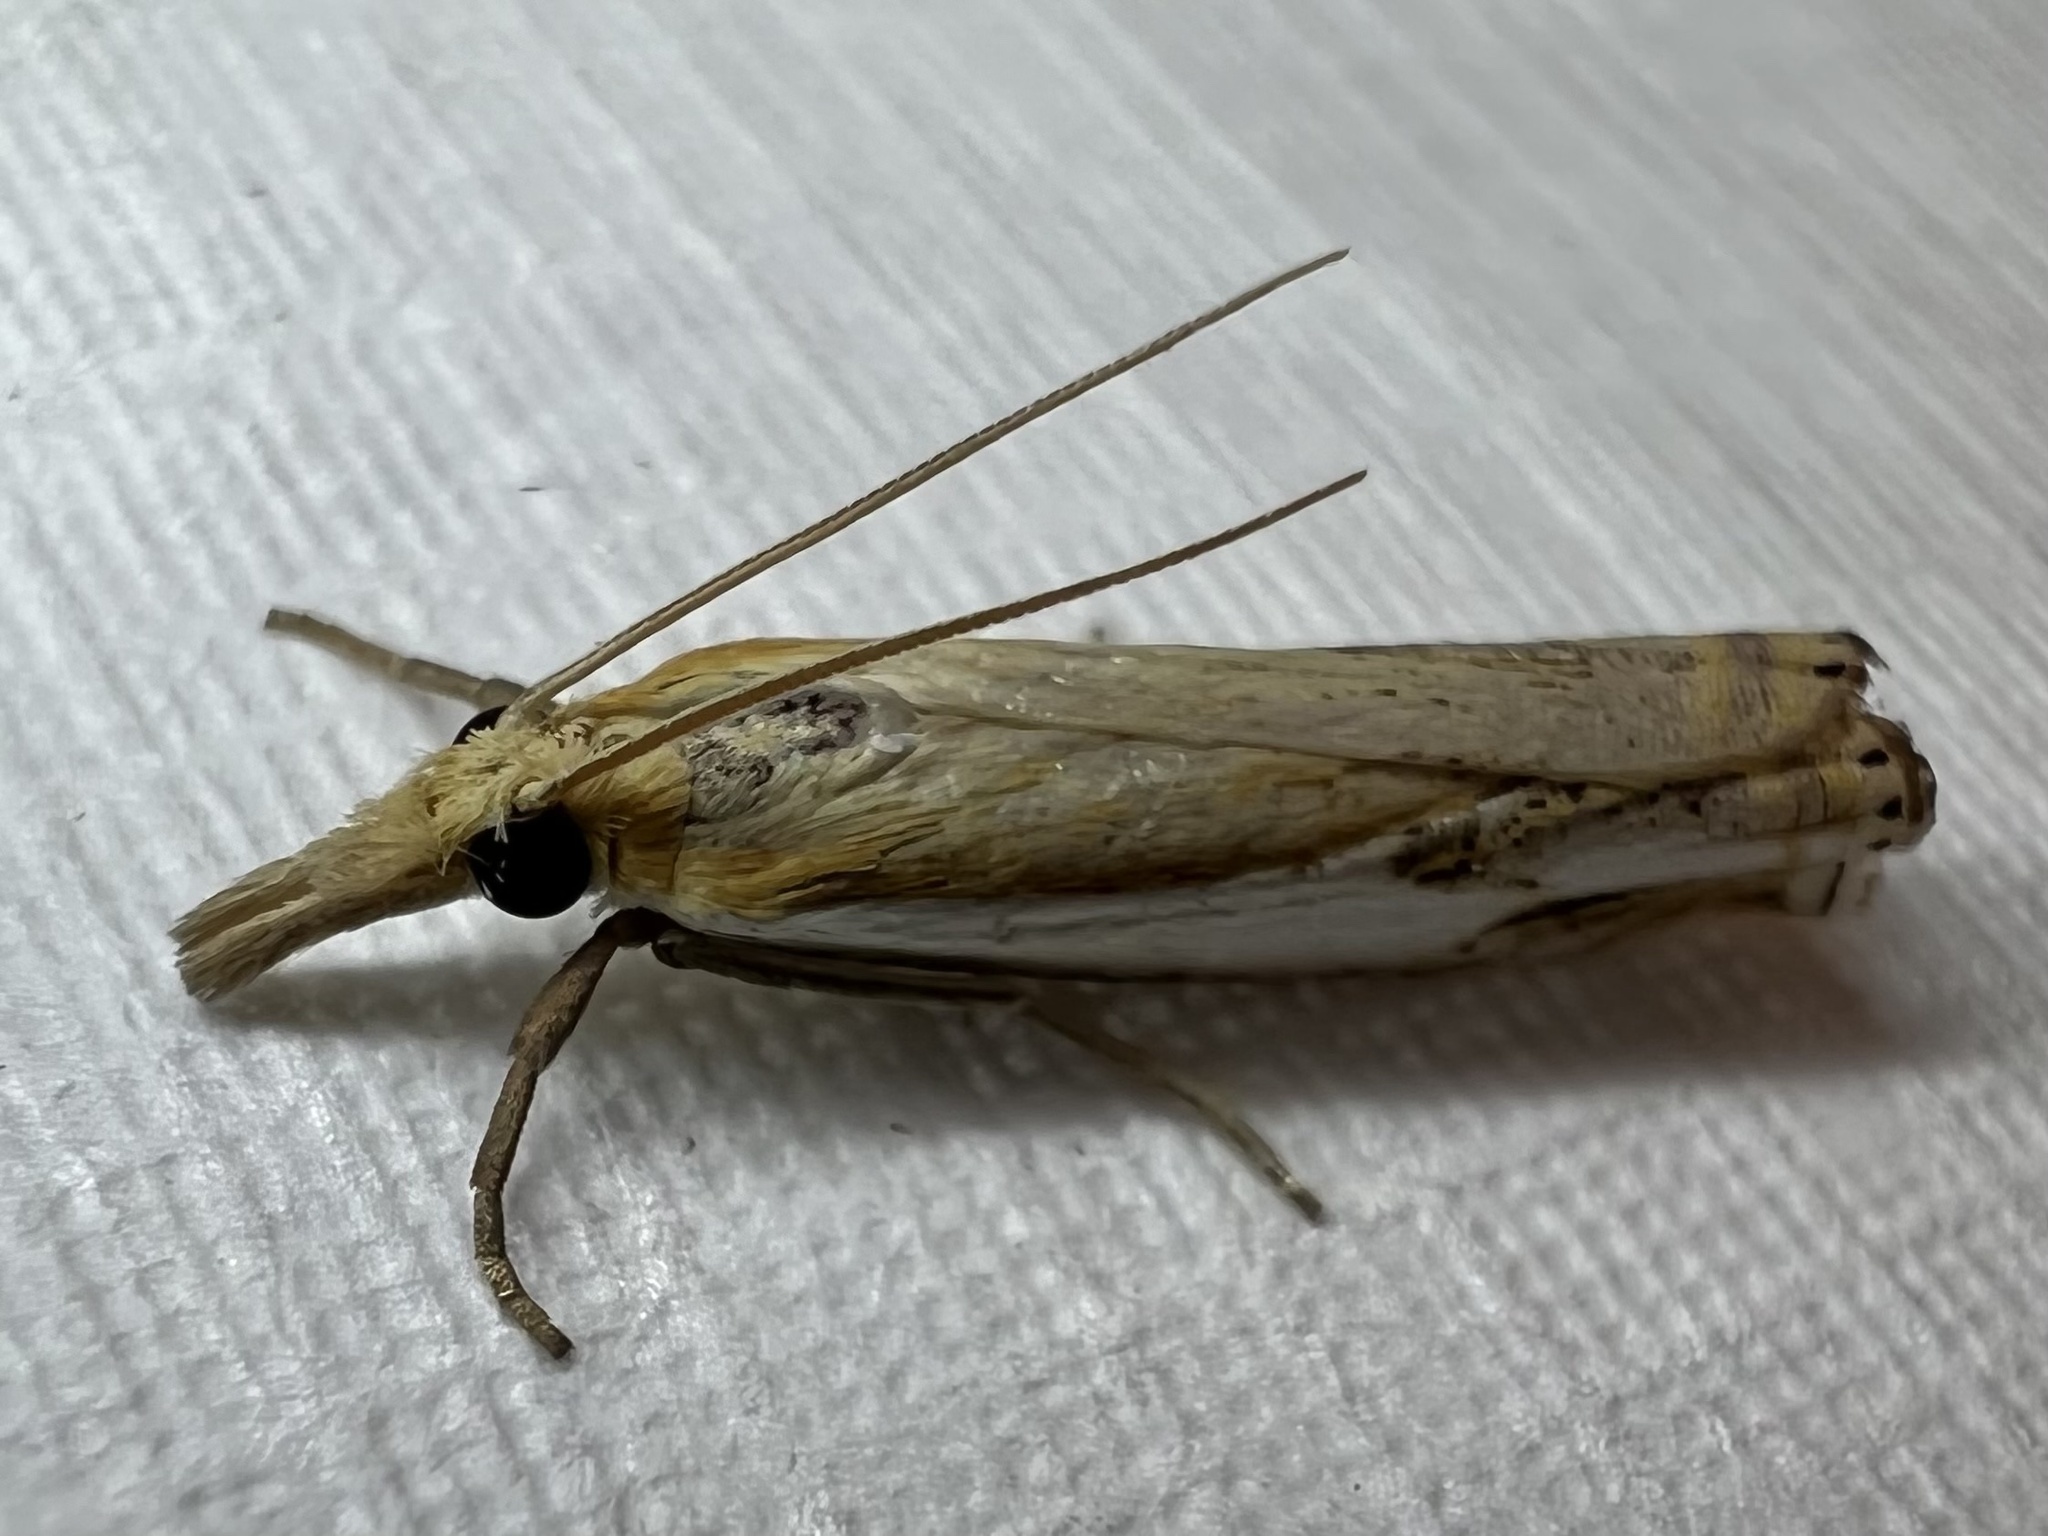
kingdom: Animalia
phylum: Arthropoda
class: Insecta
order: Lepidoptera
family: Crambidae
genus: Crambus
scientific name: Crambus agitatellus
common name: Double-banded grass-veneer
